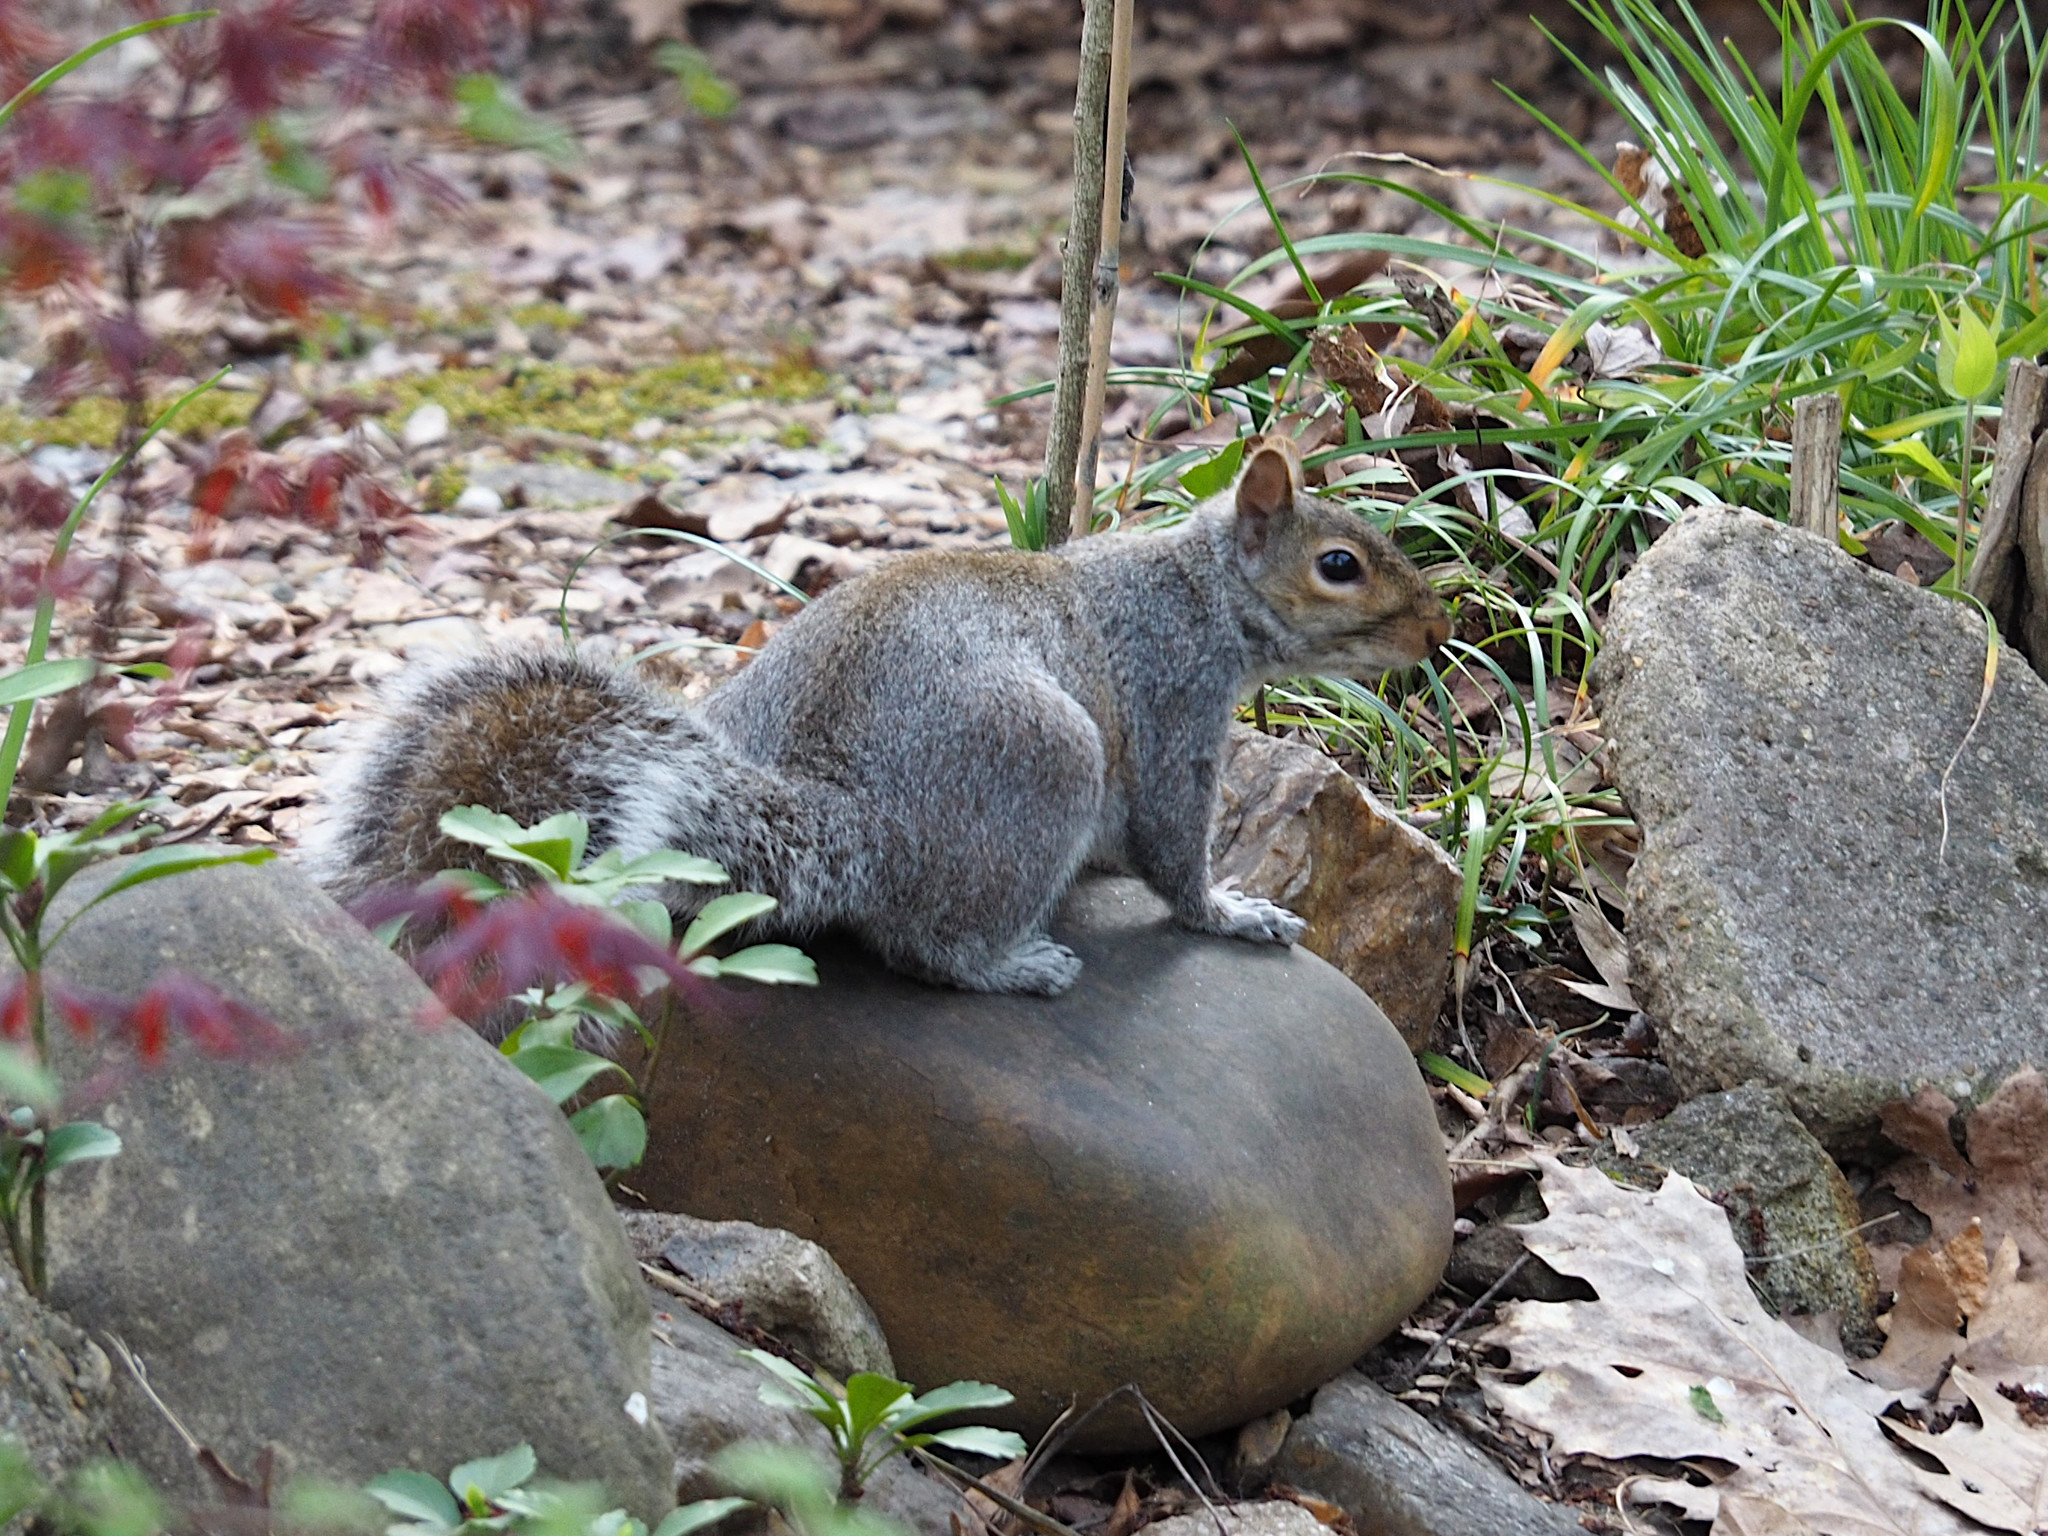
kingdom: Animalia
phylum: Chordata
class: Mammalia
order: Rodentia
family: Sciuridae
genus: Sciurus
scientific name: Sciurus carolinensis
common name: Eastern gray squirrel
